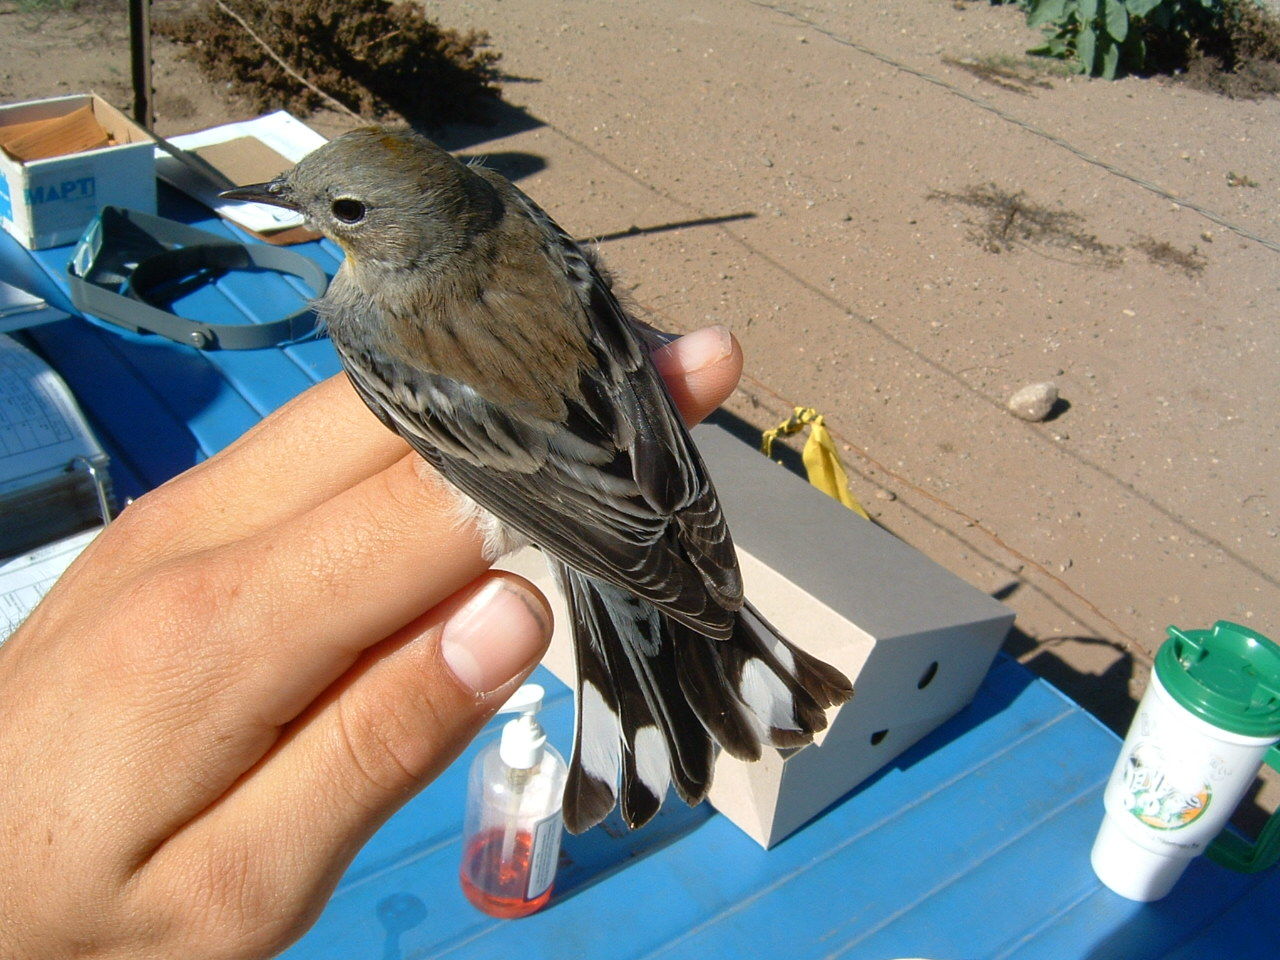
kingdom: Animalia
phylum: Chordata
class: Aves
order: Passeriformes
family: Parulidae
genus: Setophaga
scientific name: Setophaga auduboni
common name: Audubon's warbler
